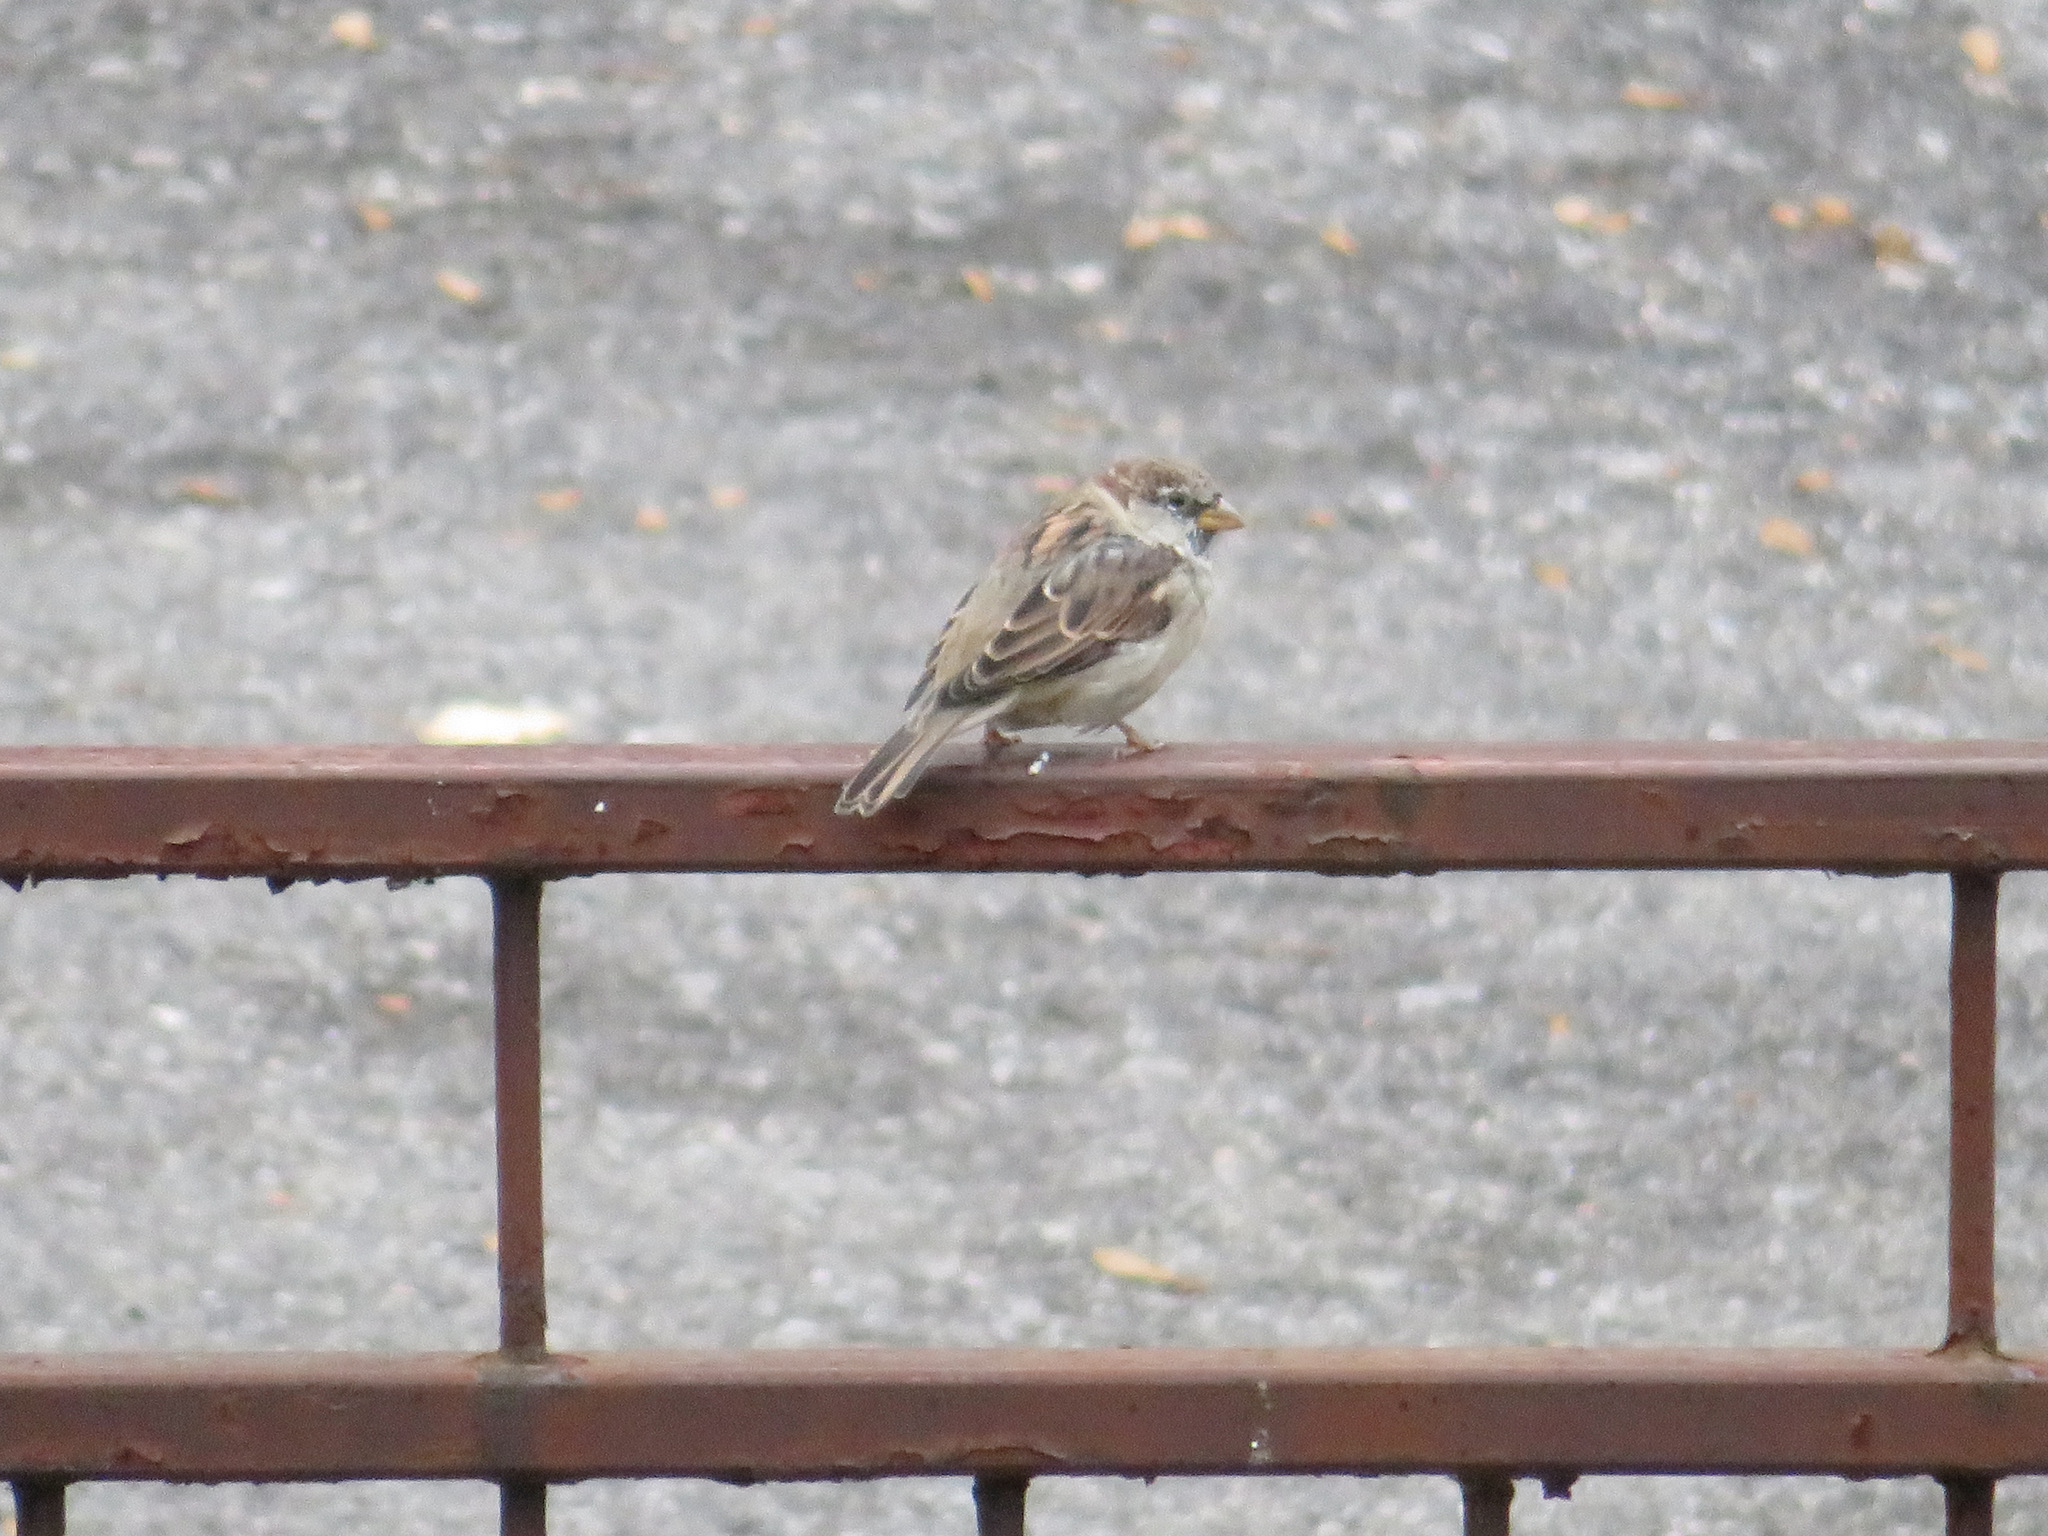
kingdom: Animalia
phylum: Chordata
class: Aves
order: Passeriformes
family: Passeridae
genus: Passer
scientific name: Passer italiae
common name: Italian sparrow
